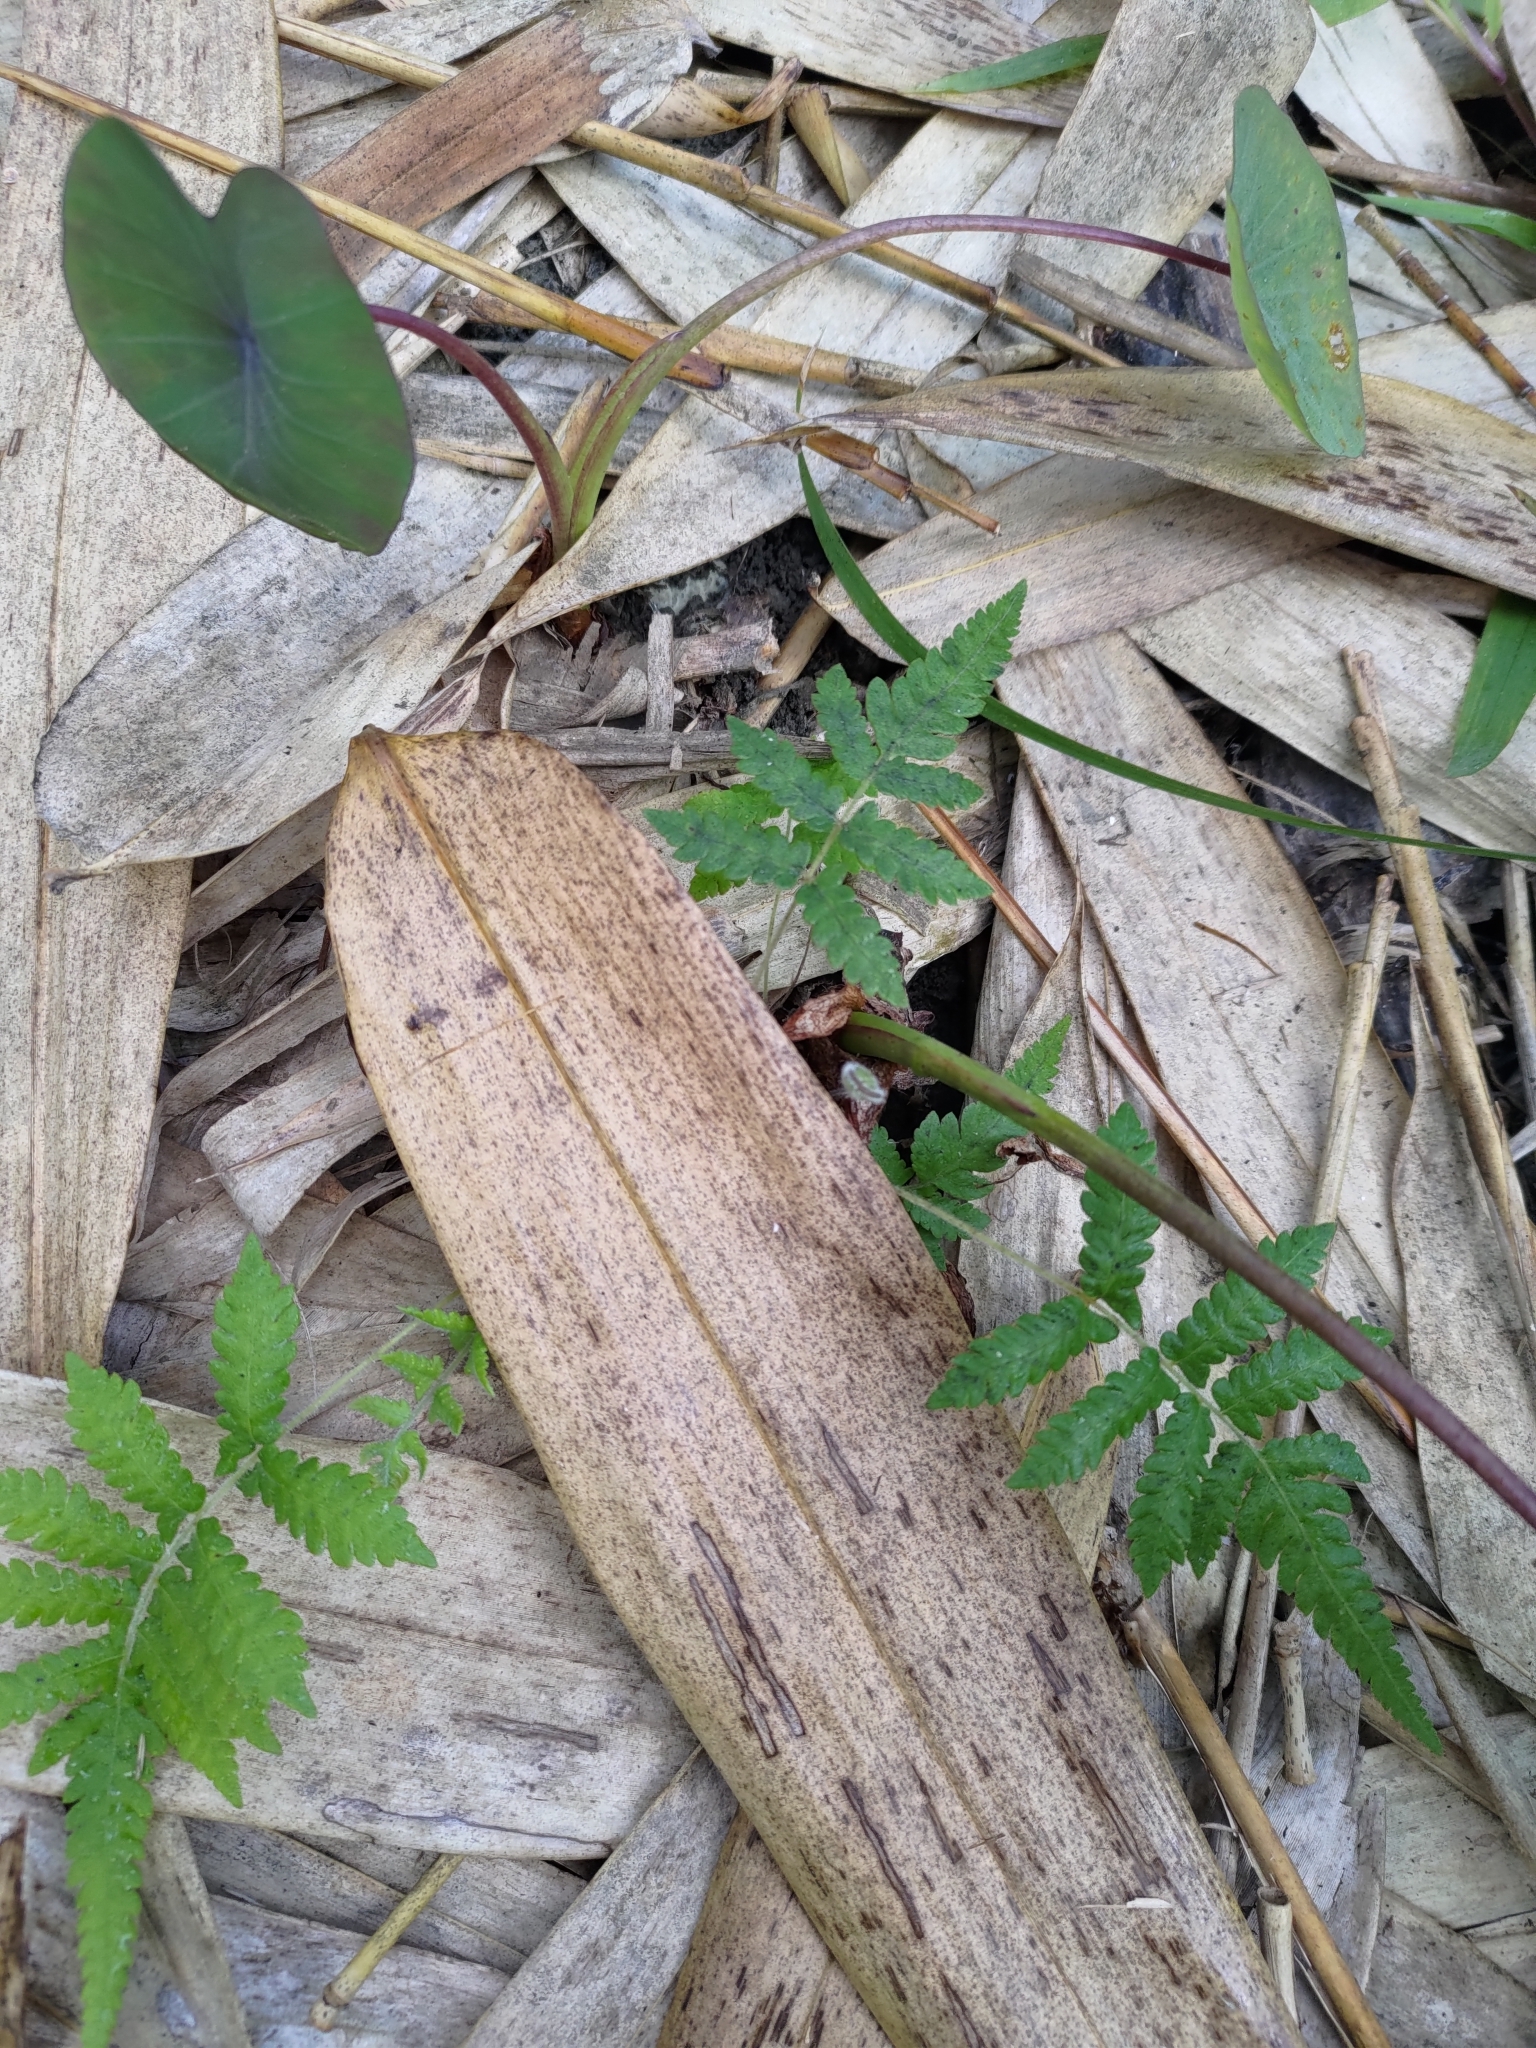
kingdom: Plantae
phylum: Tracheophyta
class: Polypodiopsida
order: Polypodiales
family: Thelypteridaceae
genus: Christella
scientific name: Christella acuminata
